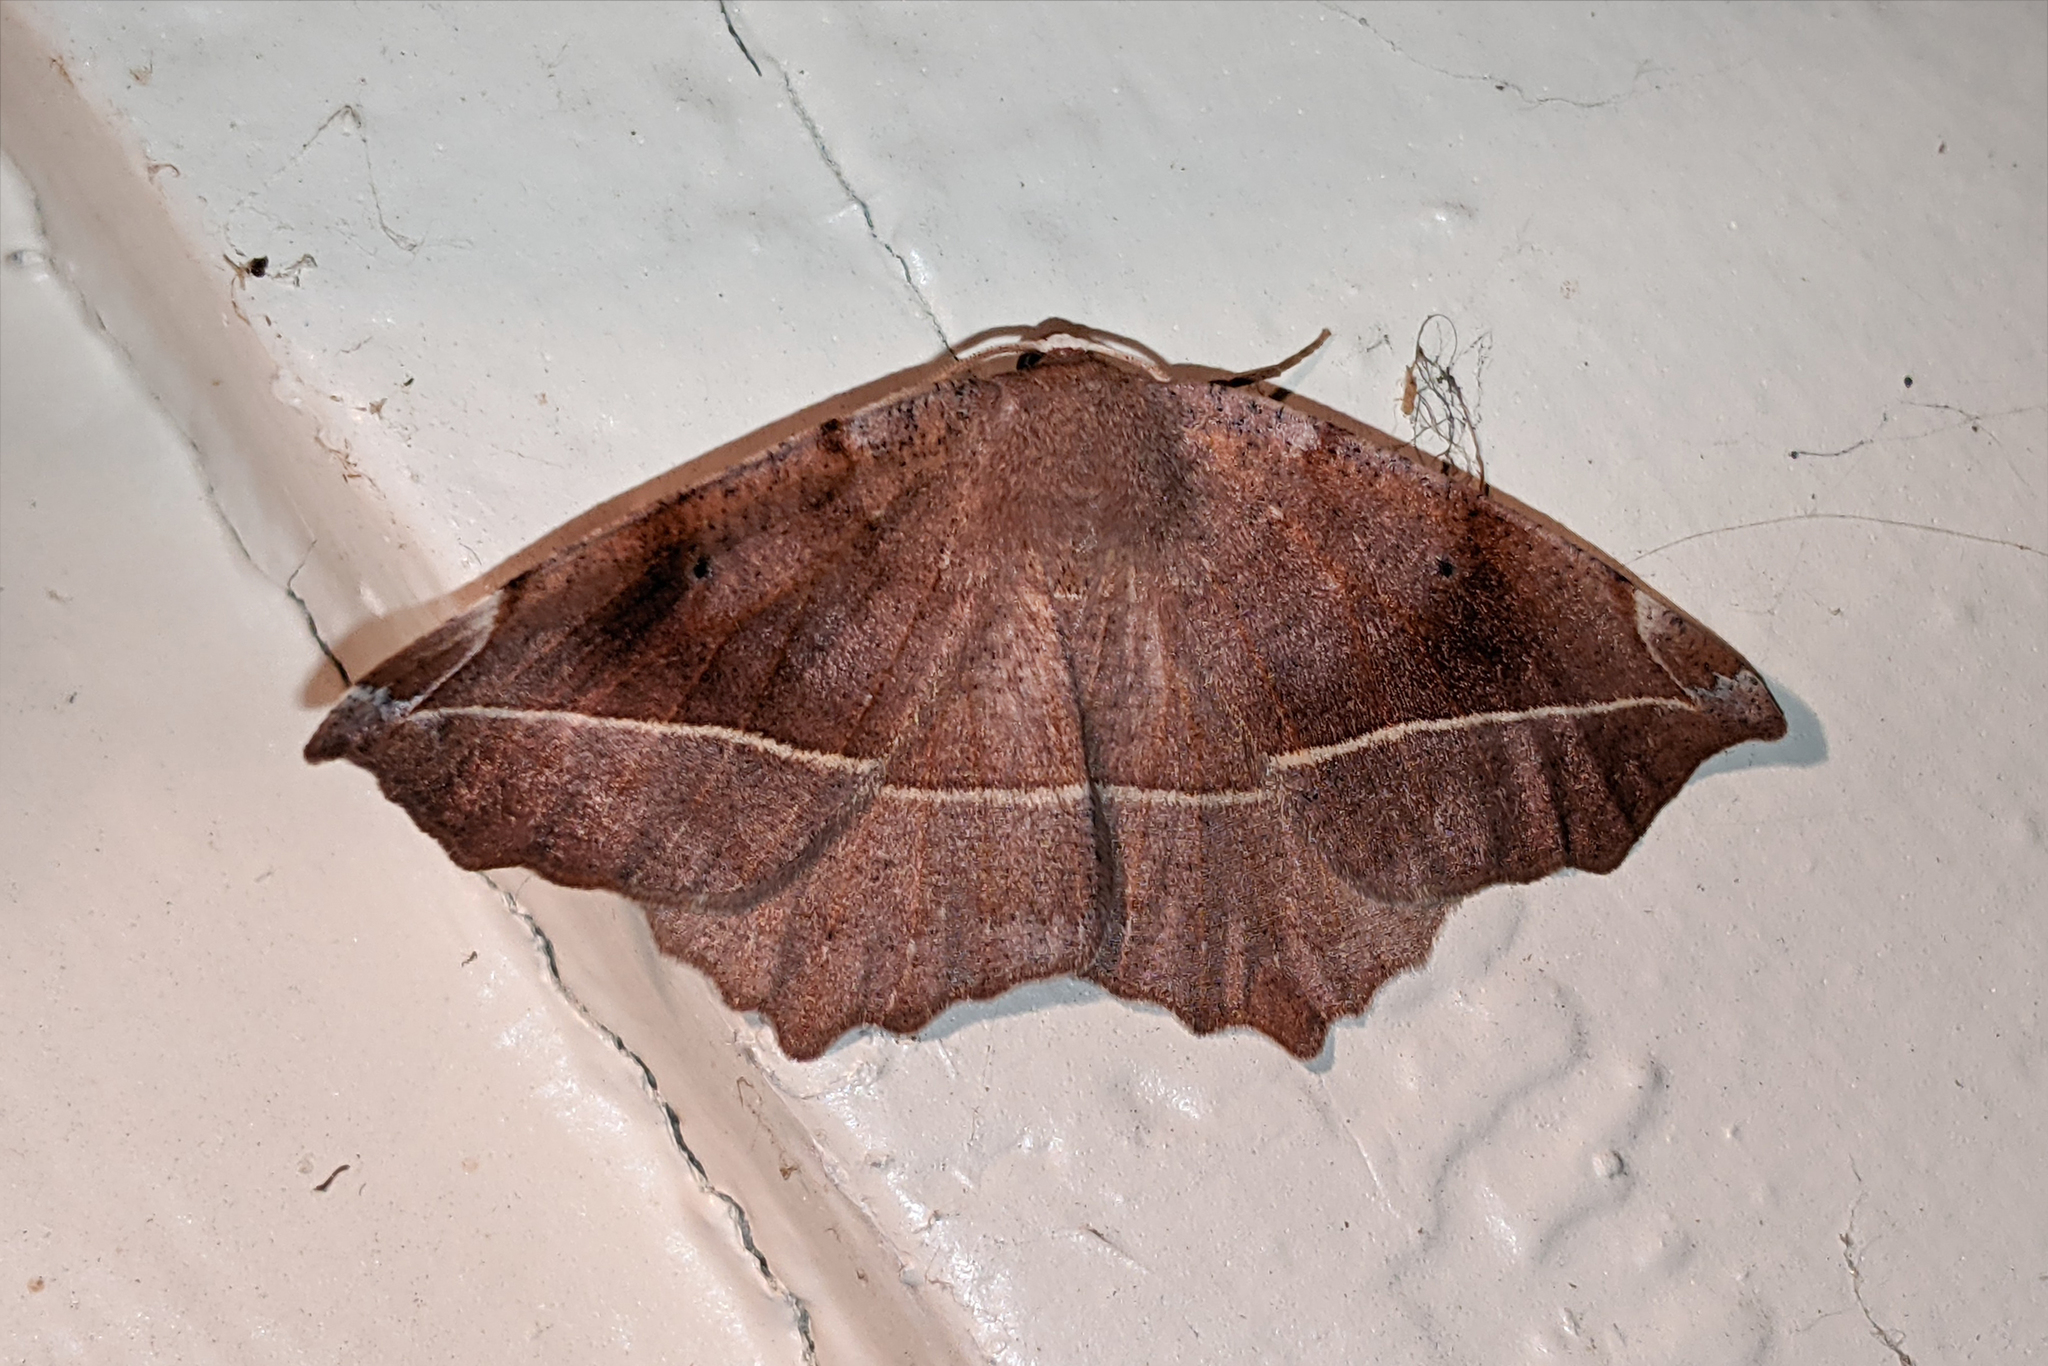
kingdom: Animalia
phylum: Arthropoda
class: Insecta
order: Lepidoptera
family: Geometridae
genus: Eutrapela
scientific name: Eutrapela clemataria
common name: Curved-toothed geometer
